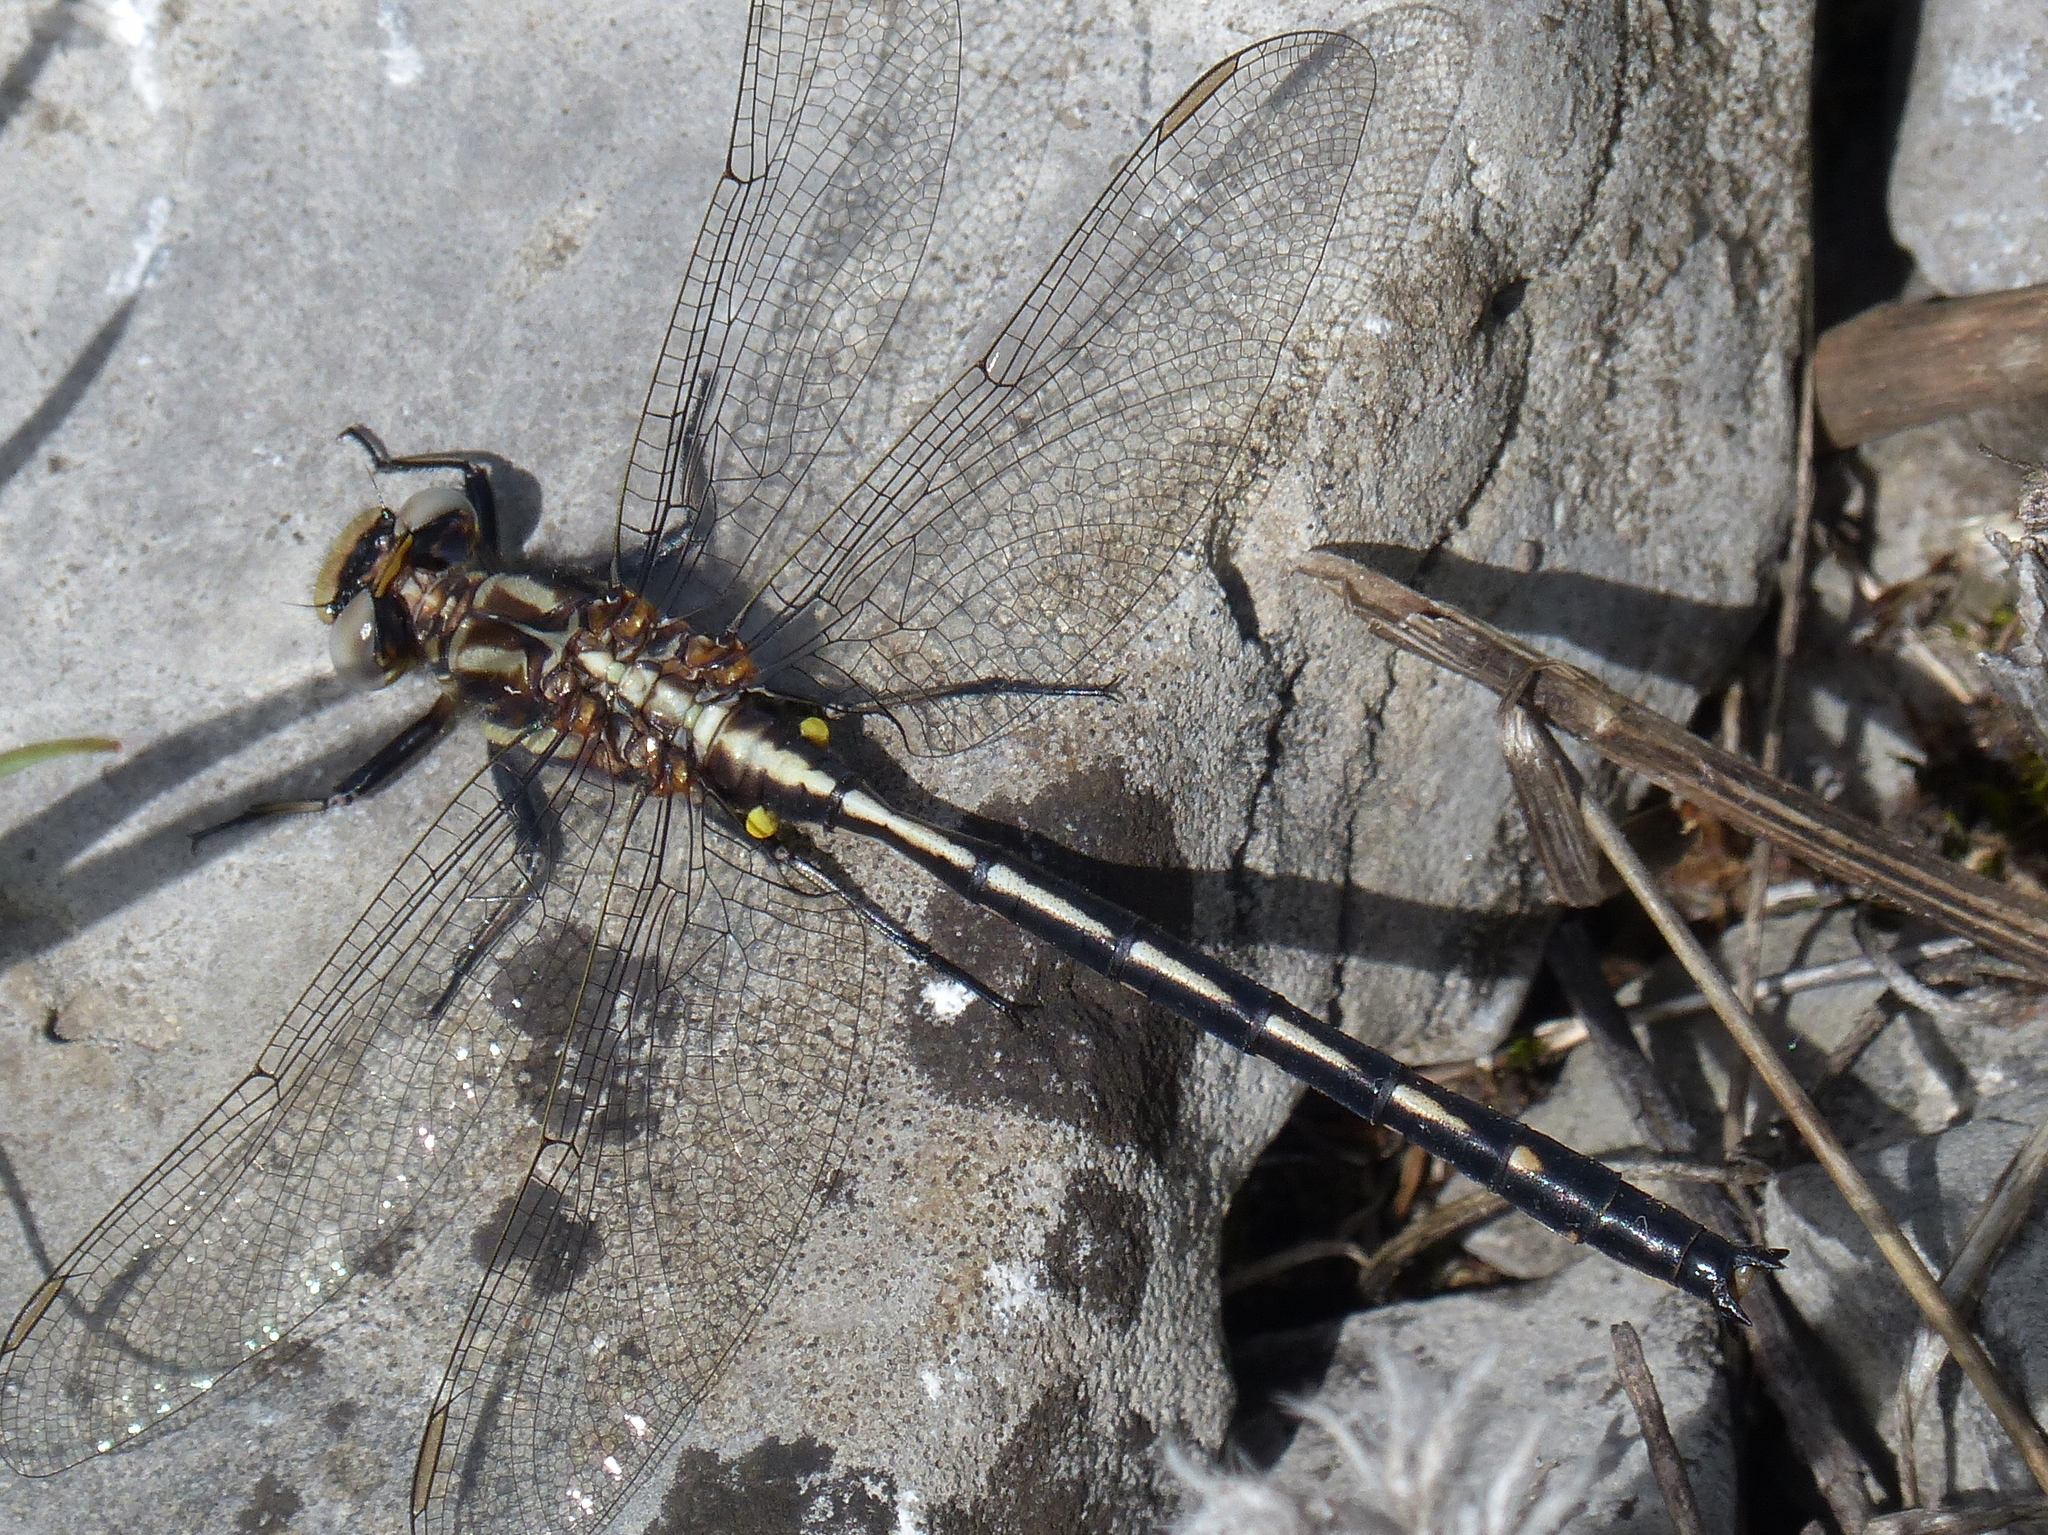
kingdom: Animalia
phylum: Arthropoda
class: Insecta
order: Odonata
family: Gomphidae
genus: Phanogomphus
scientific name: Phanogomphus spicatus
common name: Dusky clubtail
